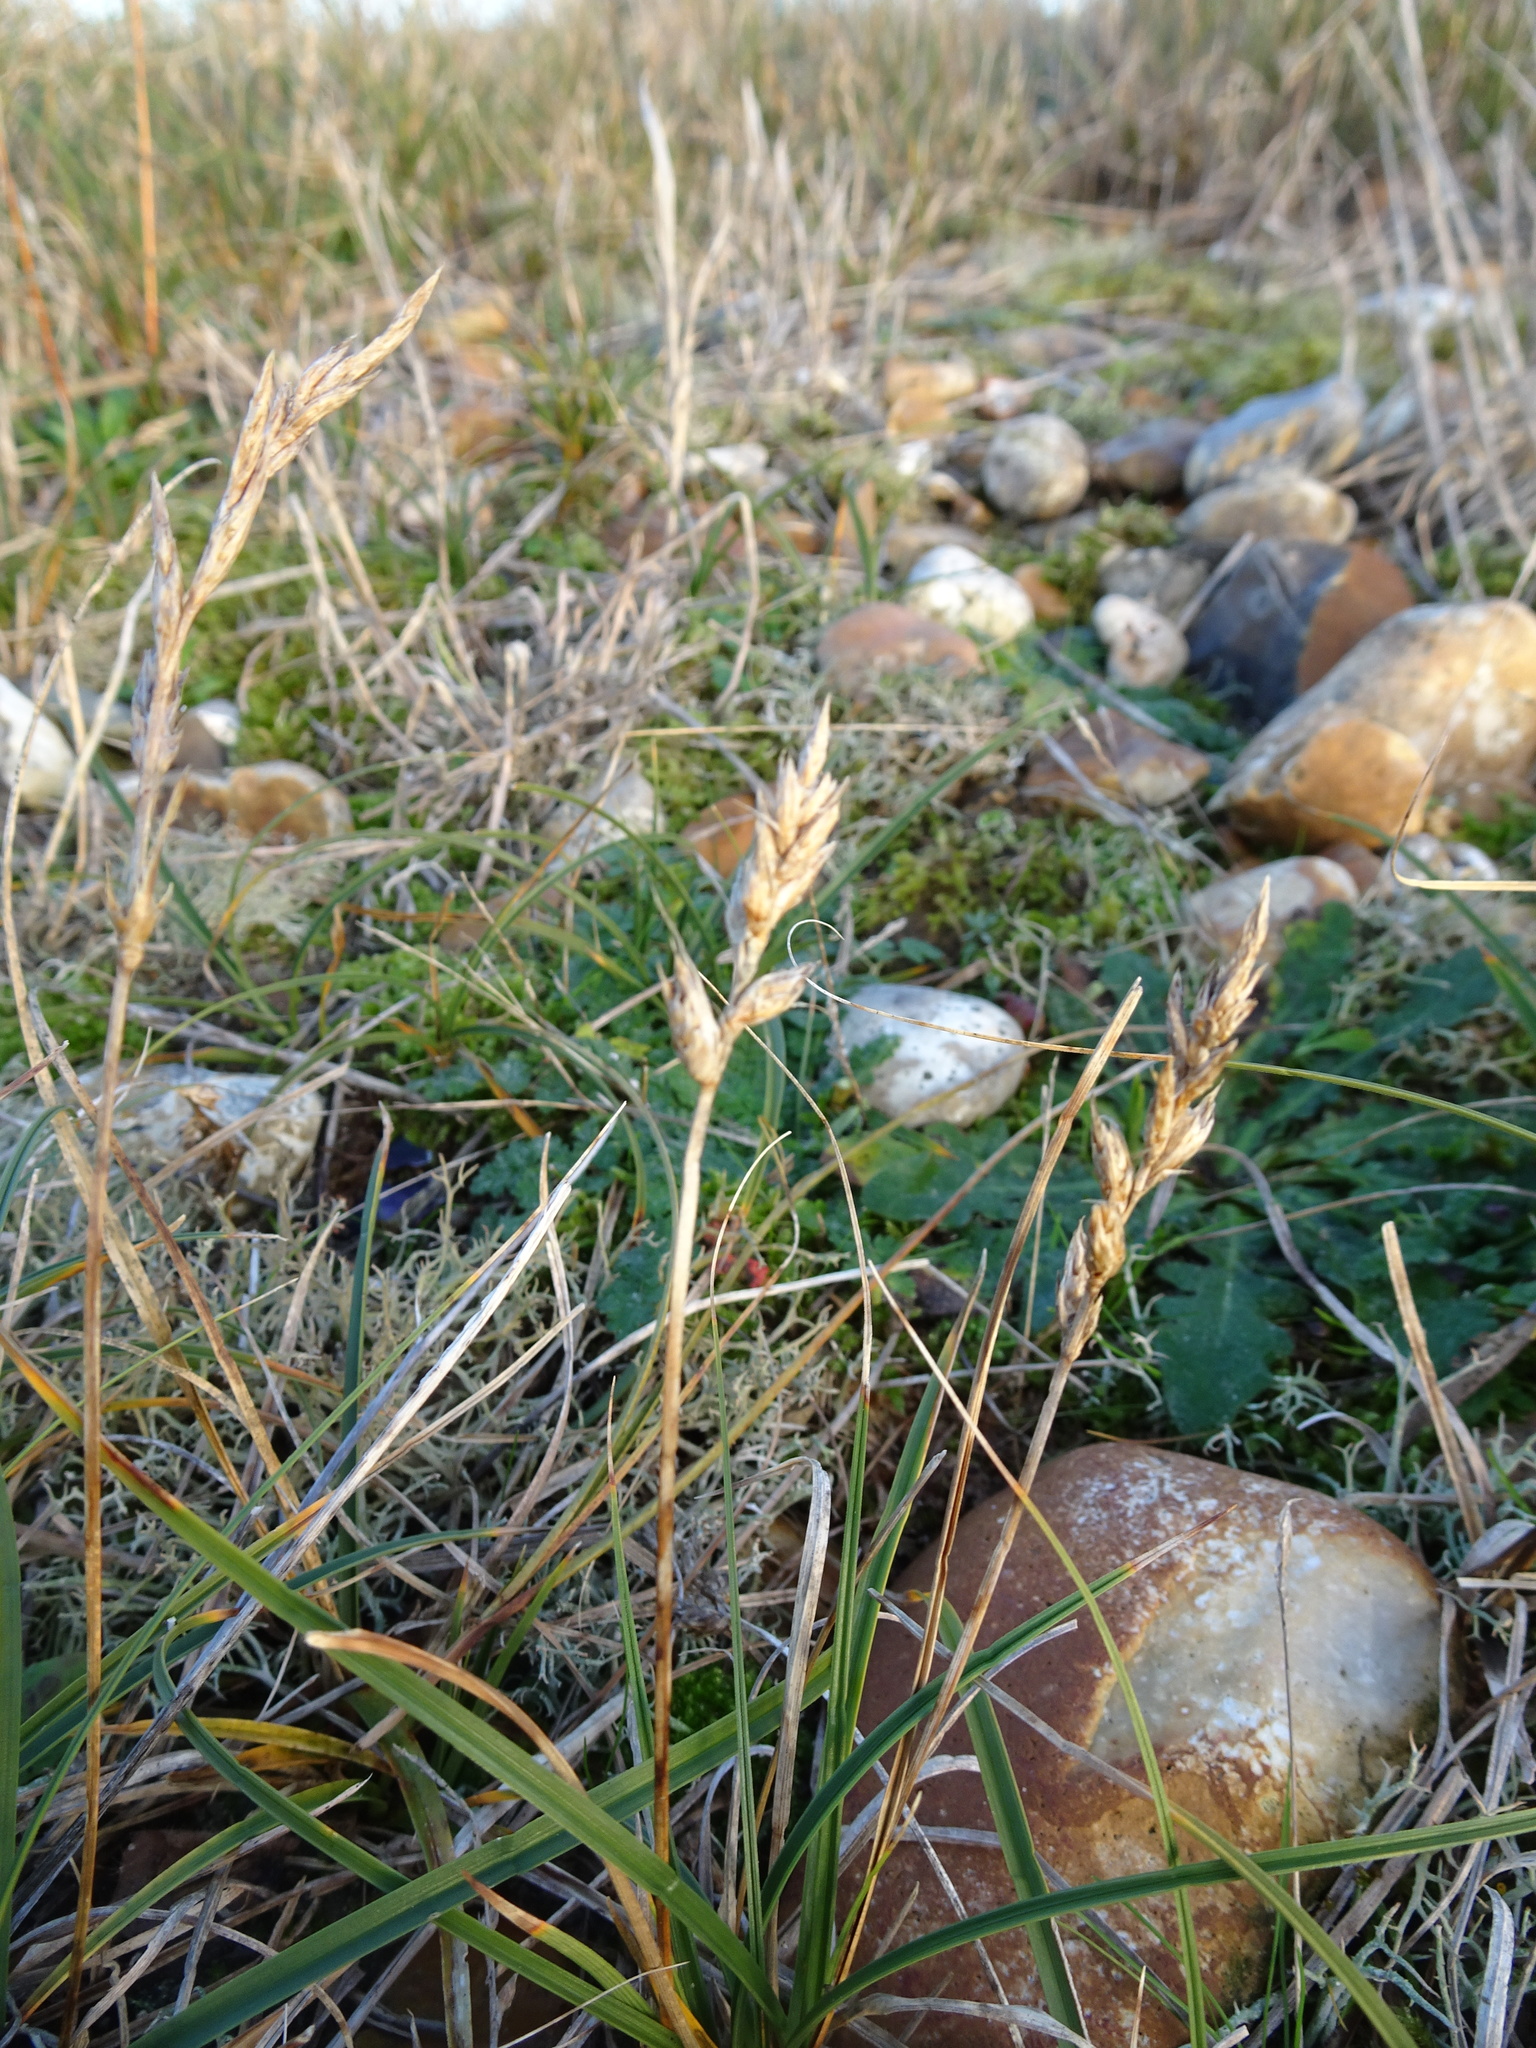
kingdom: Plantae
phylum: Tracheophyta
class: Liliopsida
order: Poales
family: Cyperaceae
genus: Carex
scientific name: Carex arenaria
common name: Sand sedge
